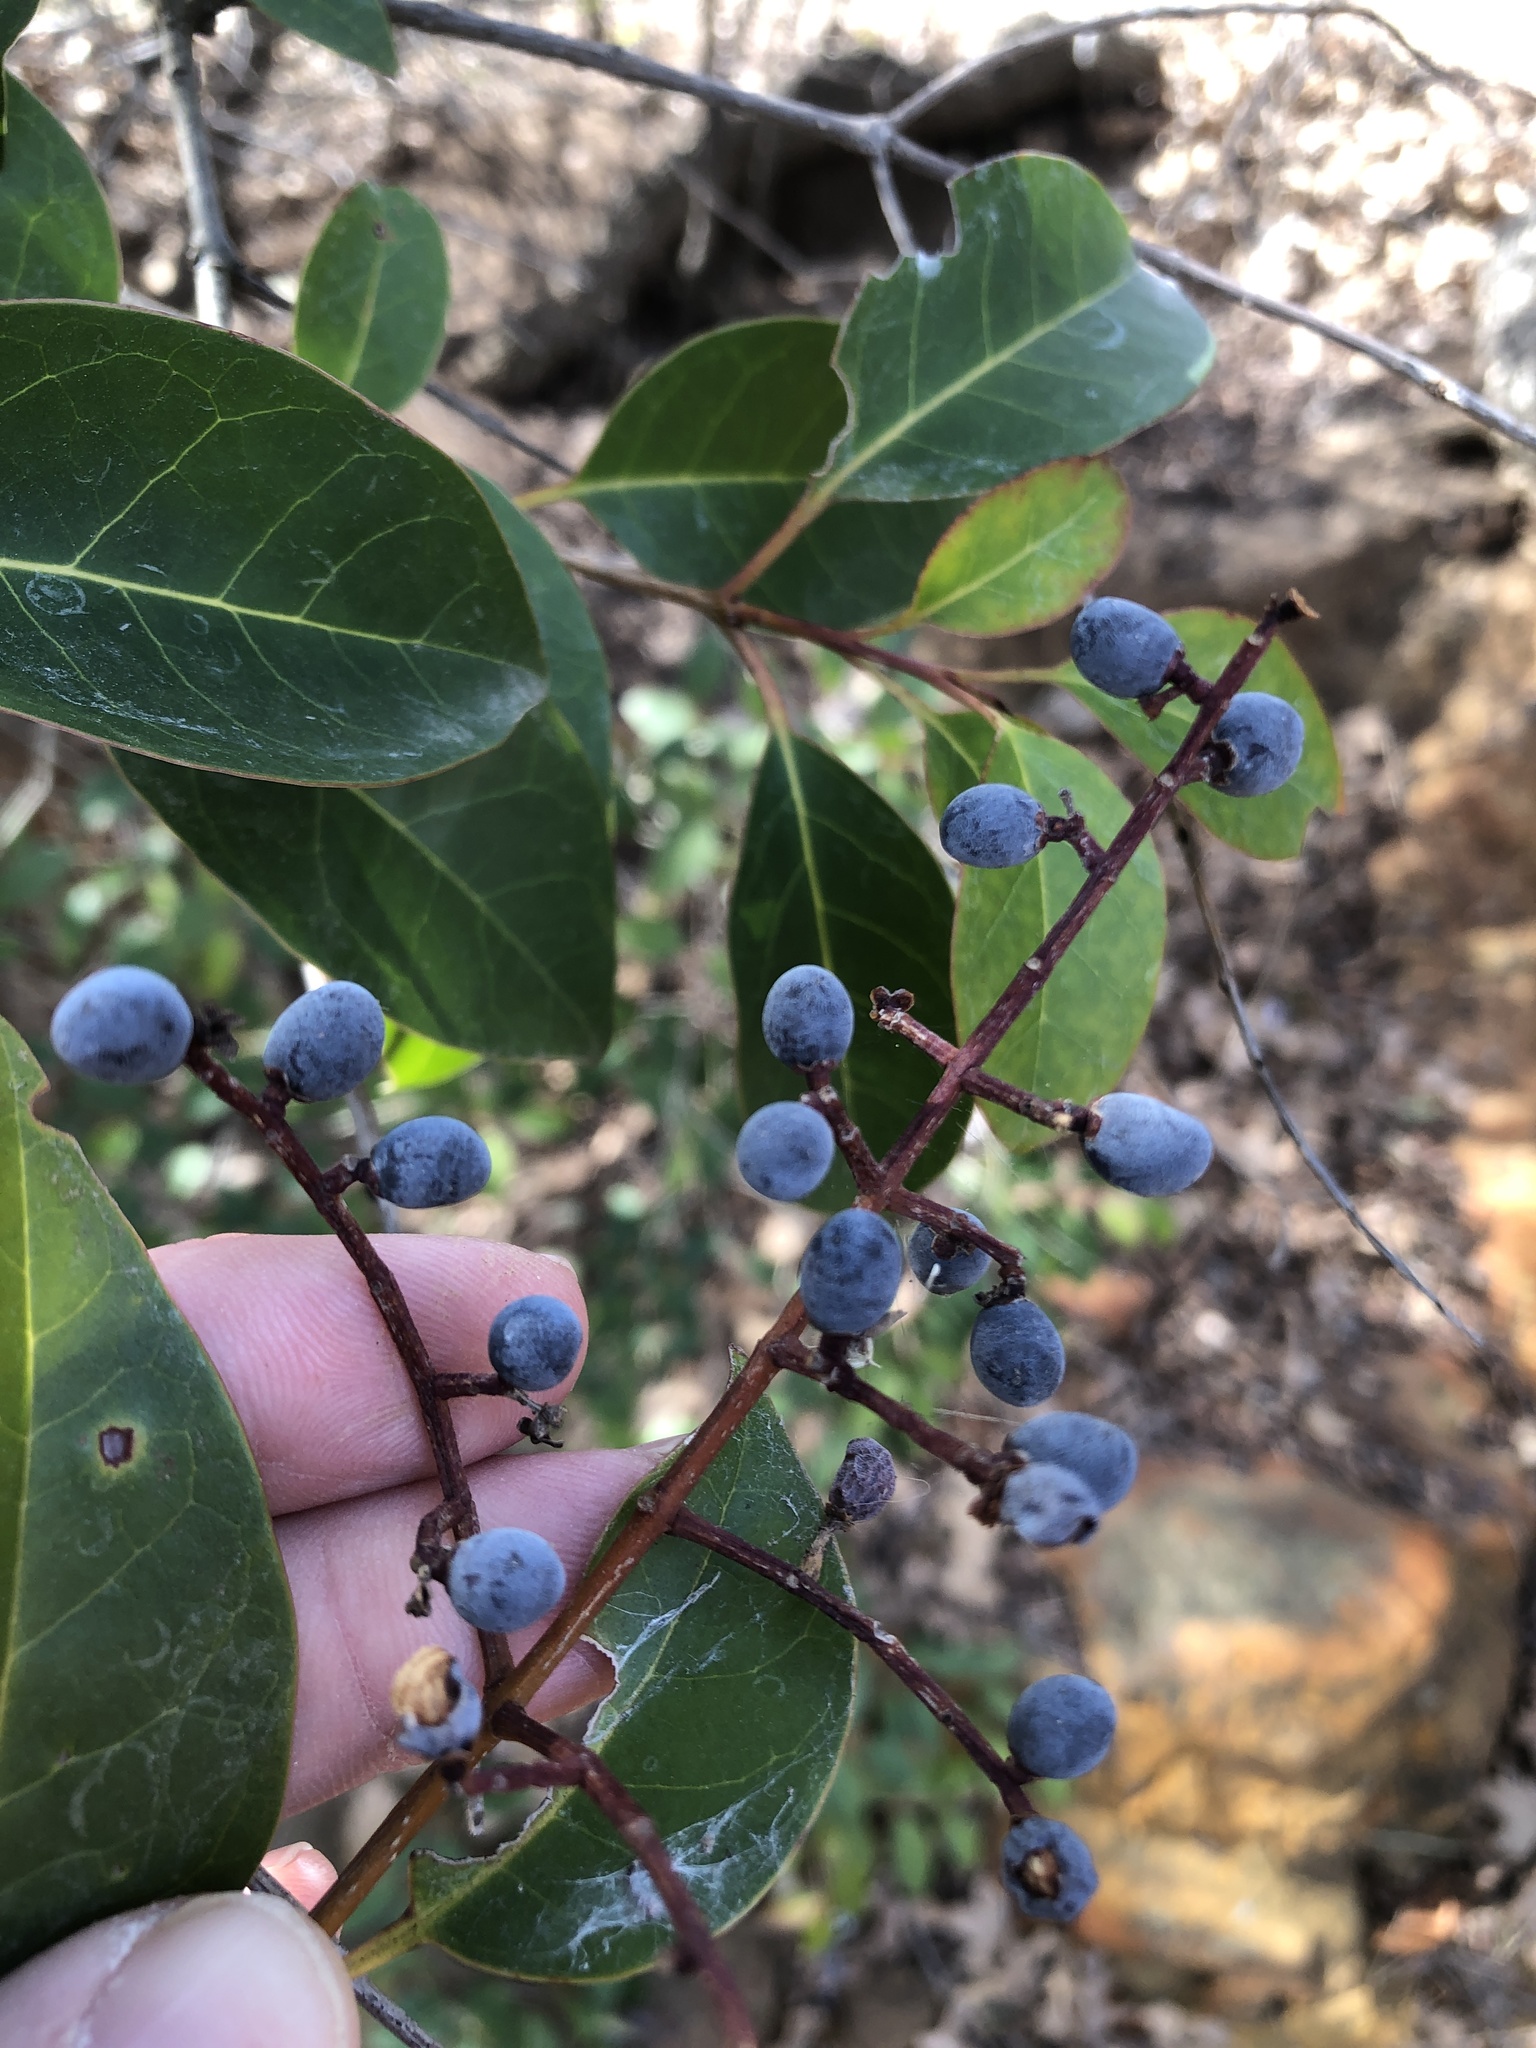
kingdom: Plantae
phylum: Tracheophyta
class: Magnoliopsida
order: Lamiales
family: Oleaceae
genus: Ligustrum
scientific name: Ligustrum lucidum
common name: Glossy privet
